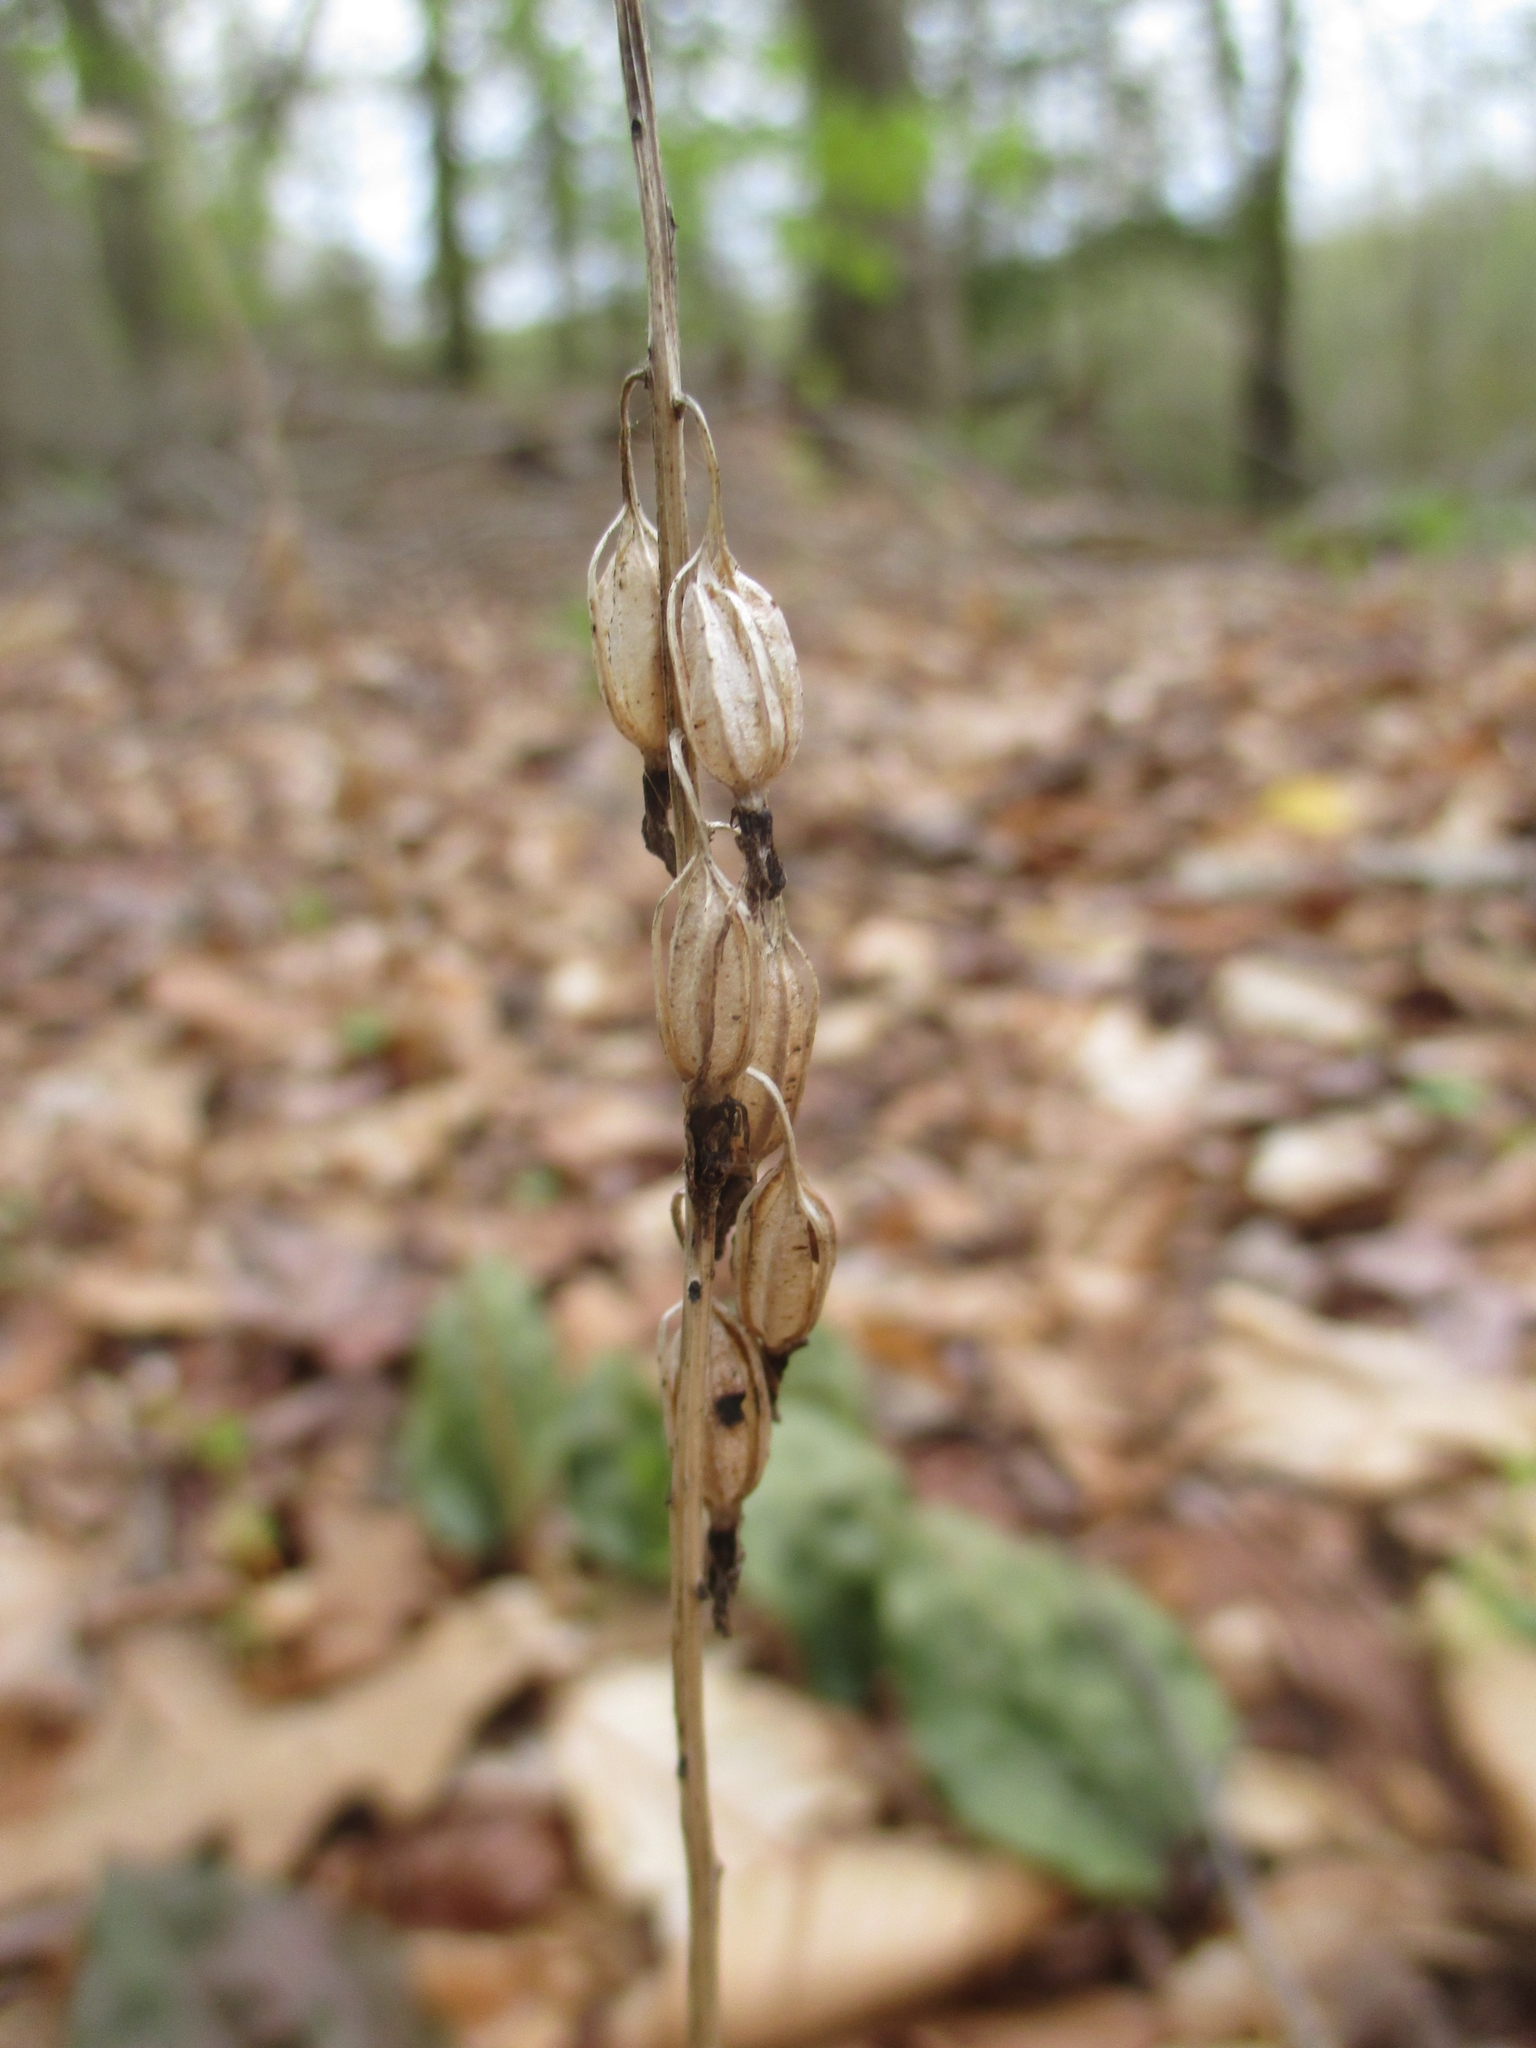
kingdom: Plantae
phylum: Tracheophyta
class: Liliopsida
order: Asparagales
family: Orchidaceae
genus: Tipularia
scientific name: Tipularia discolor
